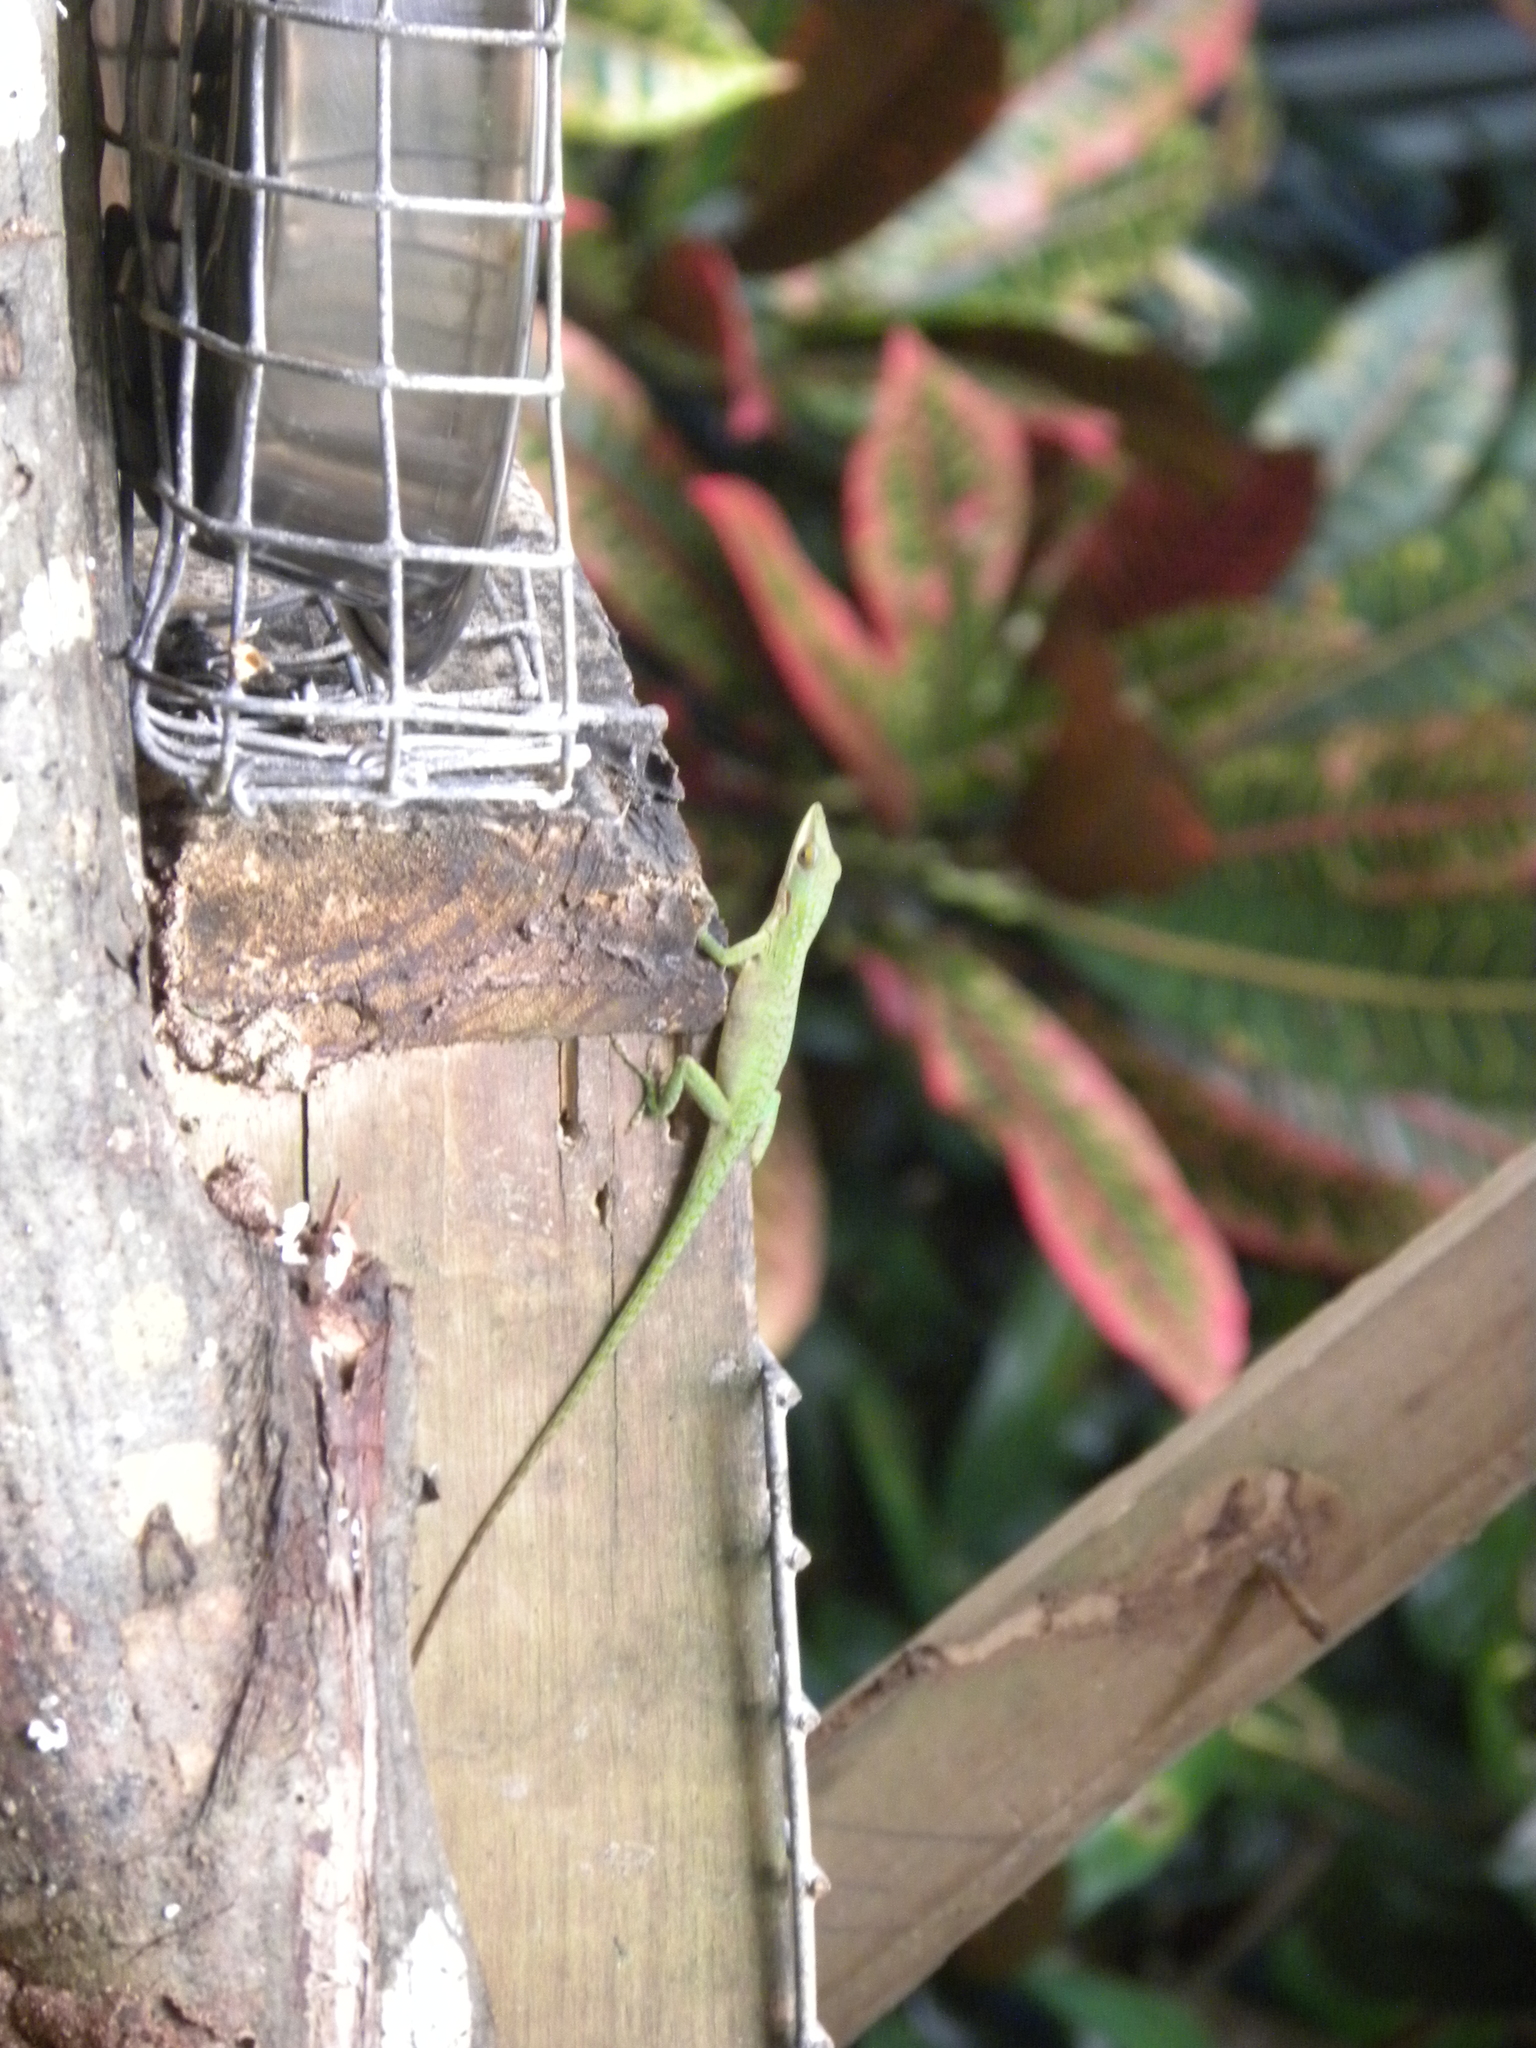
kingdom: Animalia
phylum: Chordata
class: Squamata
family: Dactyloidae
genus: Anolis
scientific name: Anolis allisoni
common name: Allison's anole
